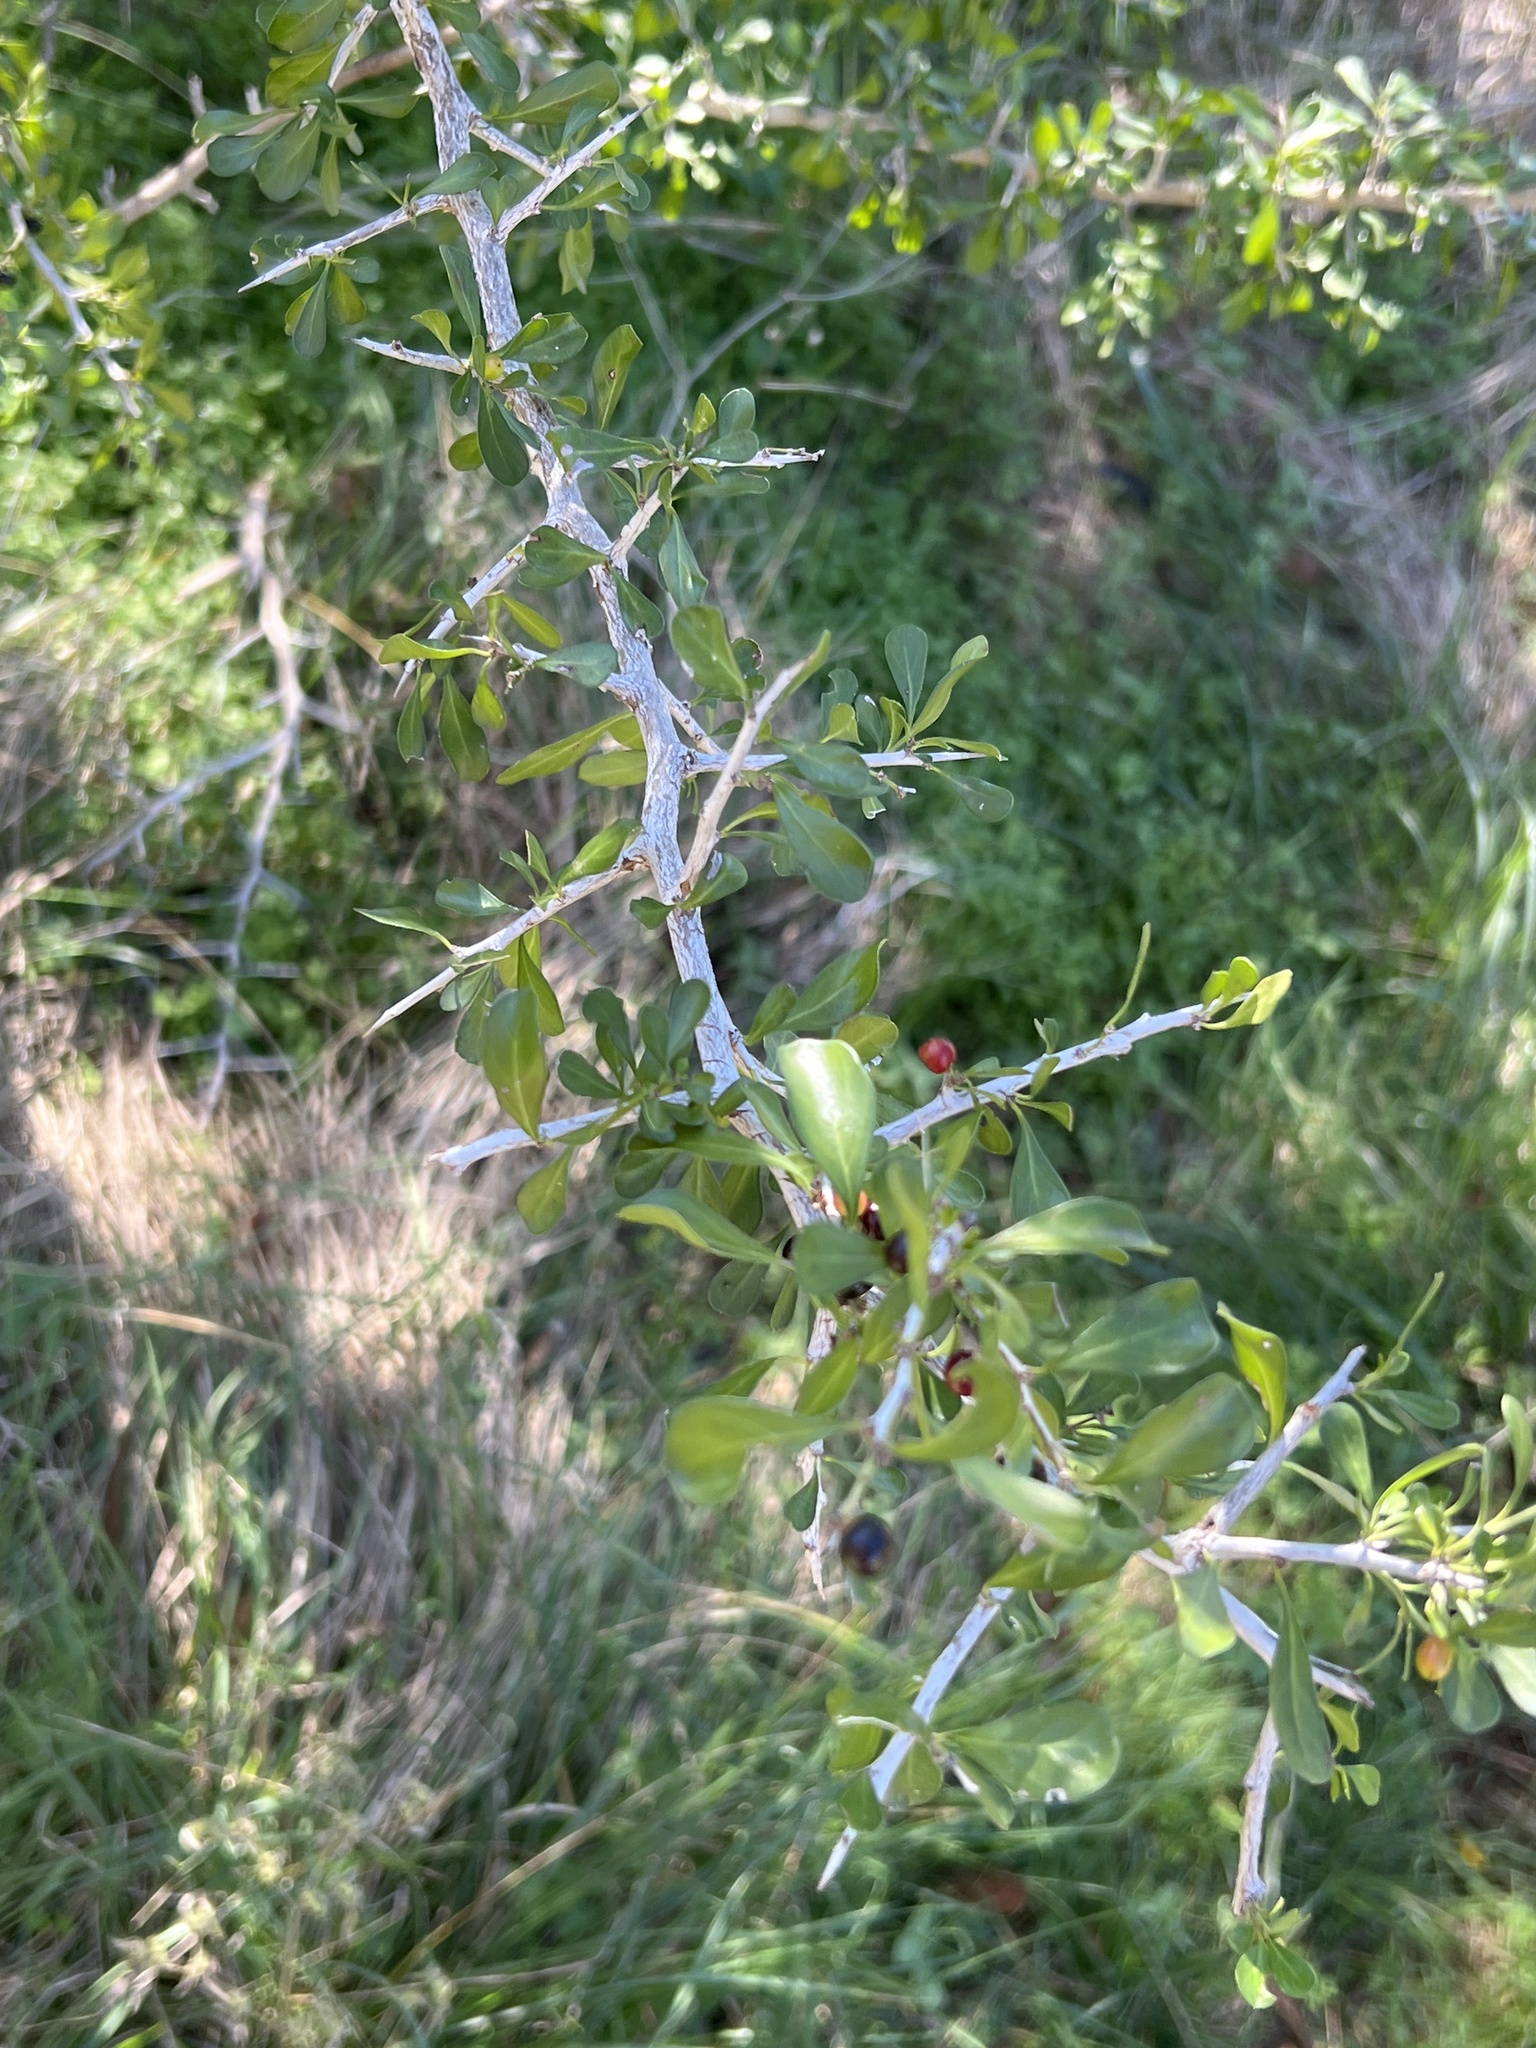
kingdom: Plantae
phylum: Tracheophyta
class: Magnoliopsida
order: Rosales
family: Rhamnaceae
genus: Condalia
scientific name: Condalia hookeri
